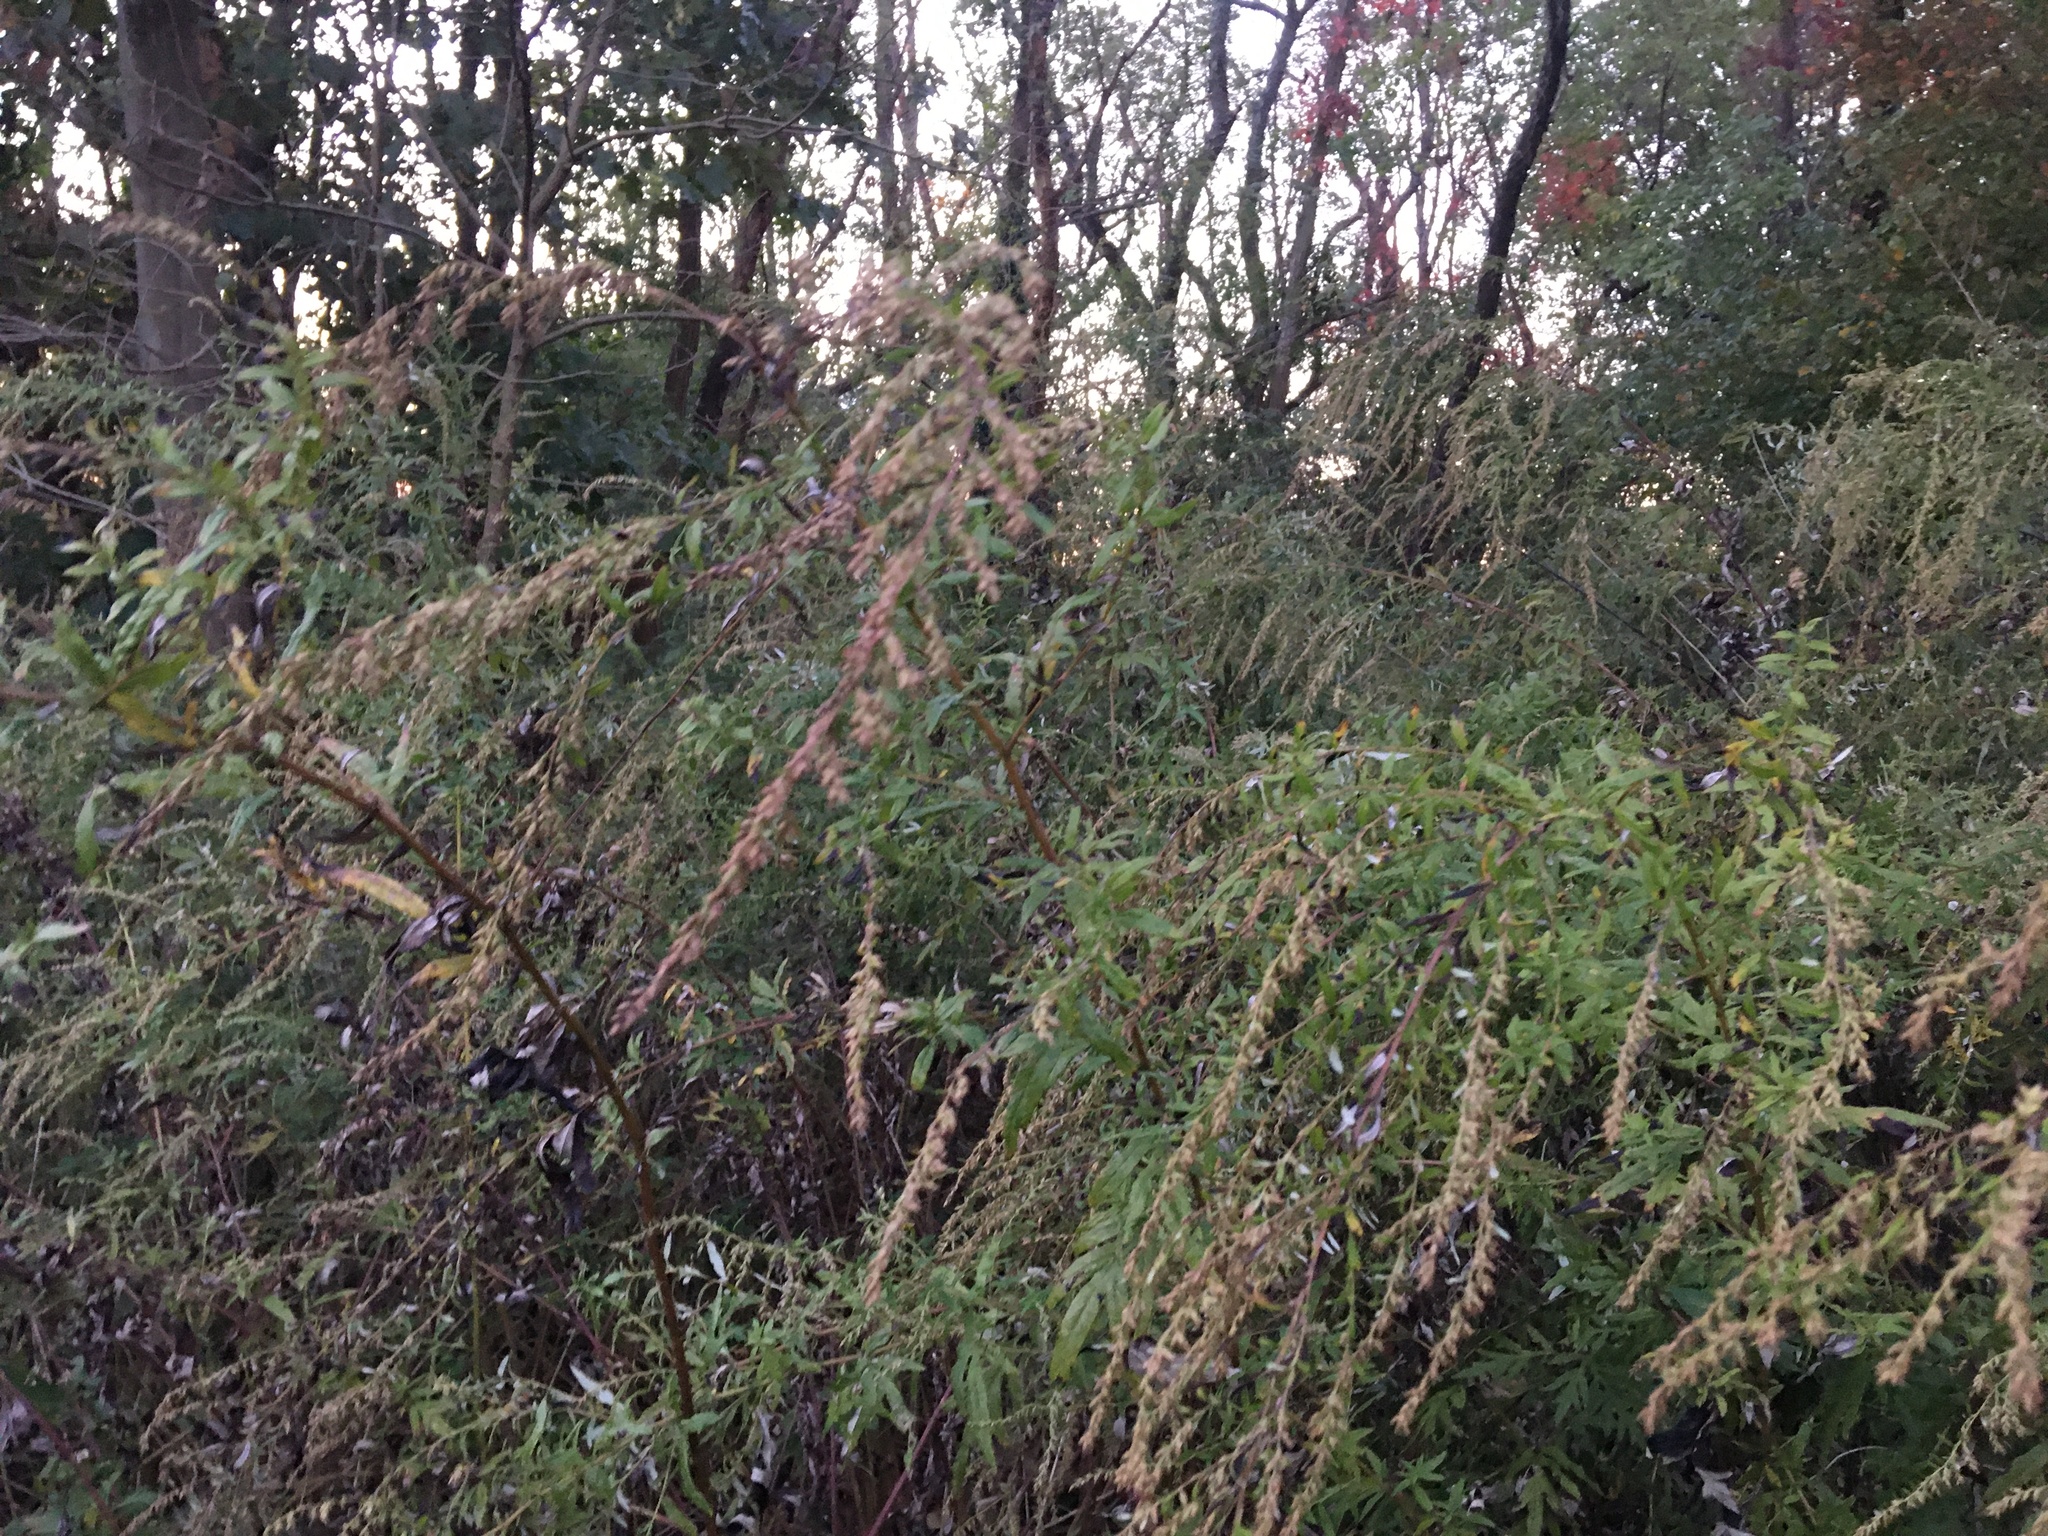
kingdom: Plantae
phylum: Tracheophyta
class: Magnoliopsida
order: Asterales
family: Asteraceae
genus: Artemisia
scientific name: Artemisia vulgaris
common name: Mugwort
